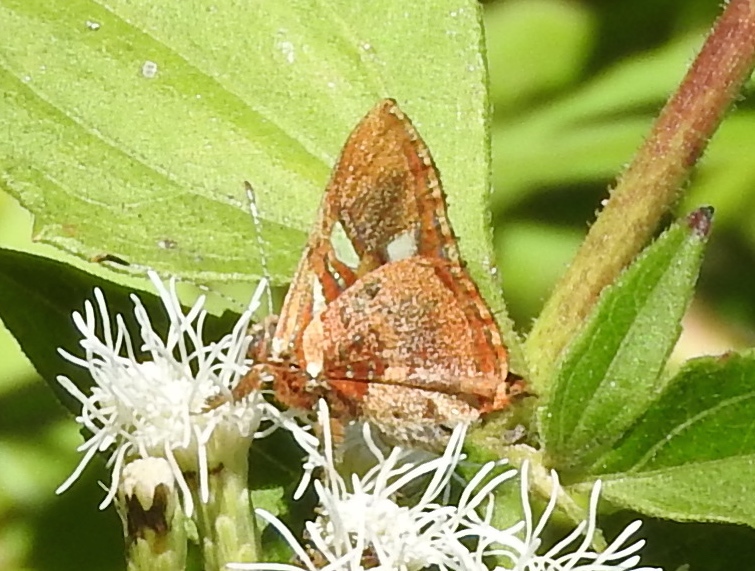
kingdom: Animalia
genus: Anteros
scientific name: Anteros carausius
